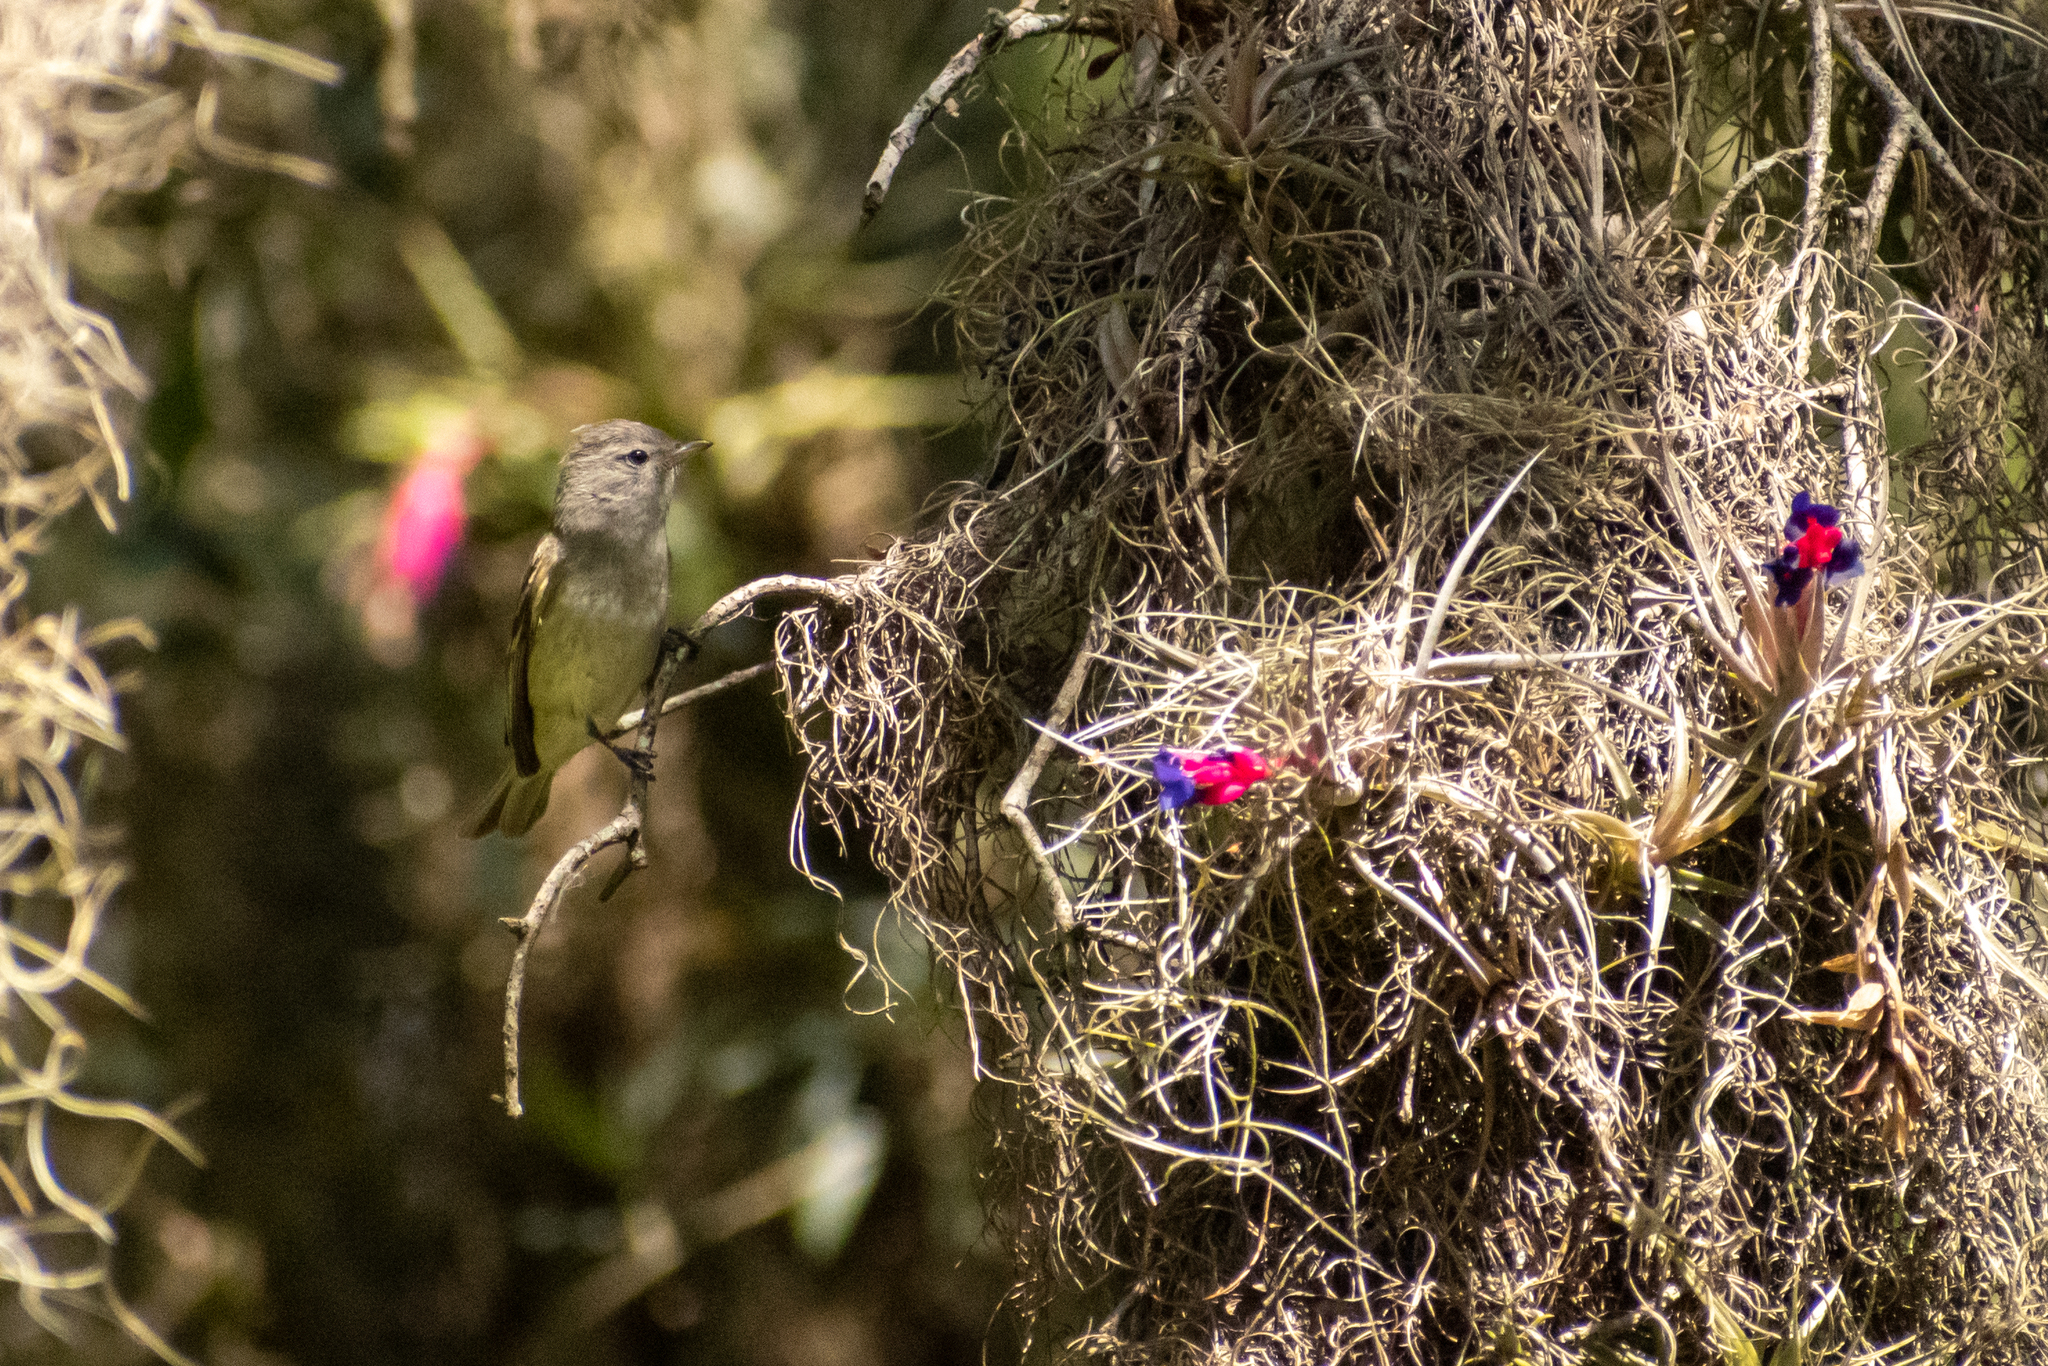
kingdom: Animalia
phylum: Chordata
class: Aves
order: Passeriformes
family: Tyrannidae
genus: Camptostoma
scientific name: Camptostoma obsoletum
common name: Southern beardless-tyrannulet
